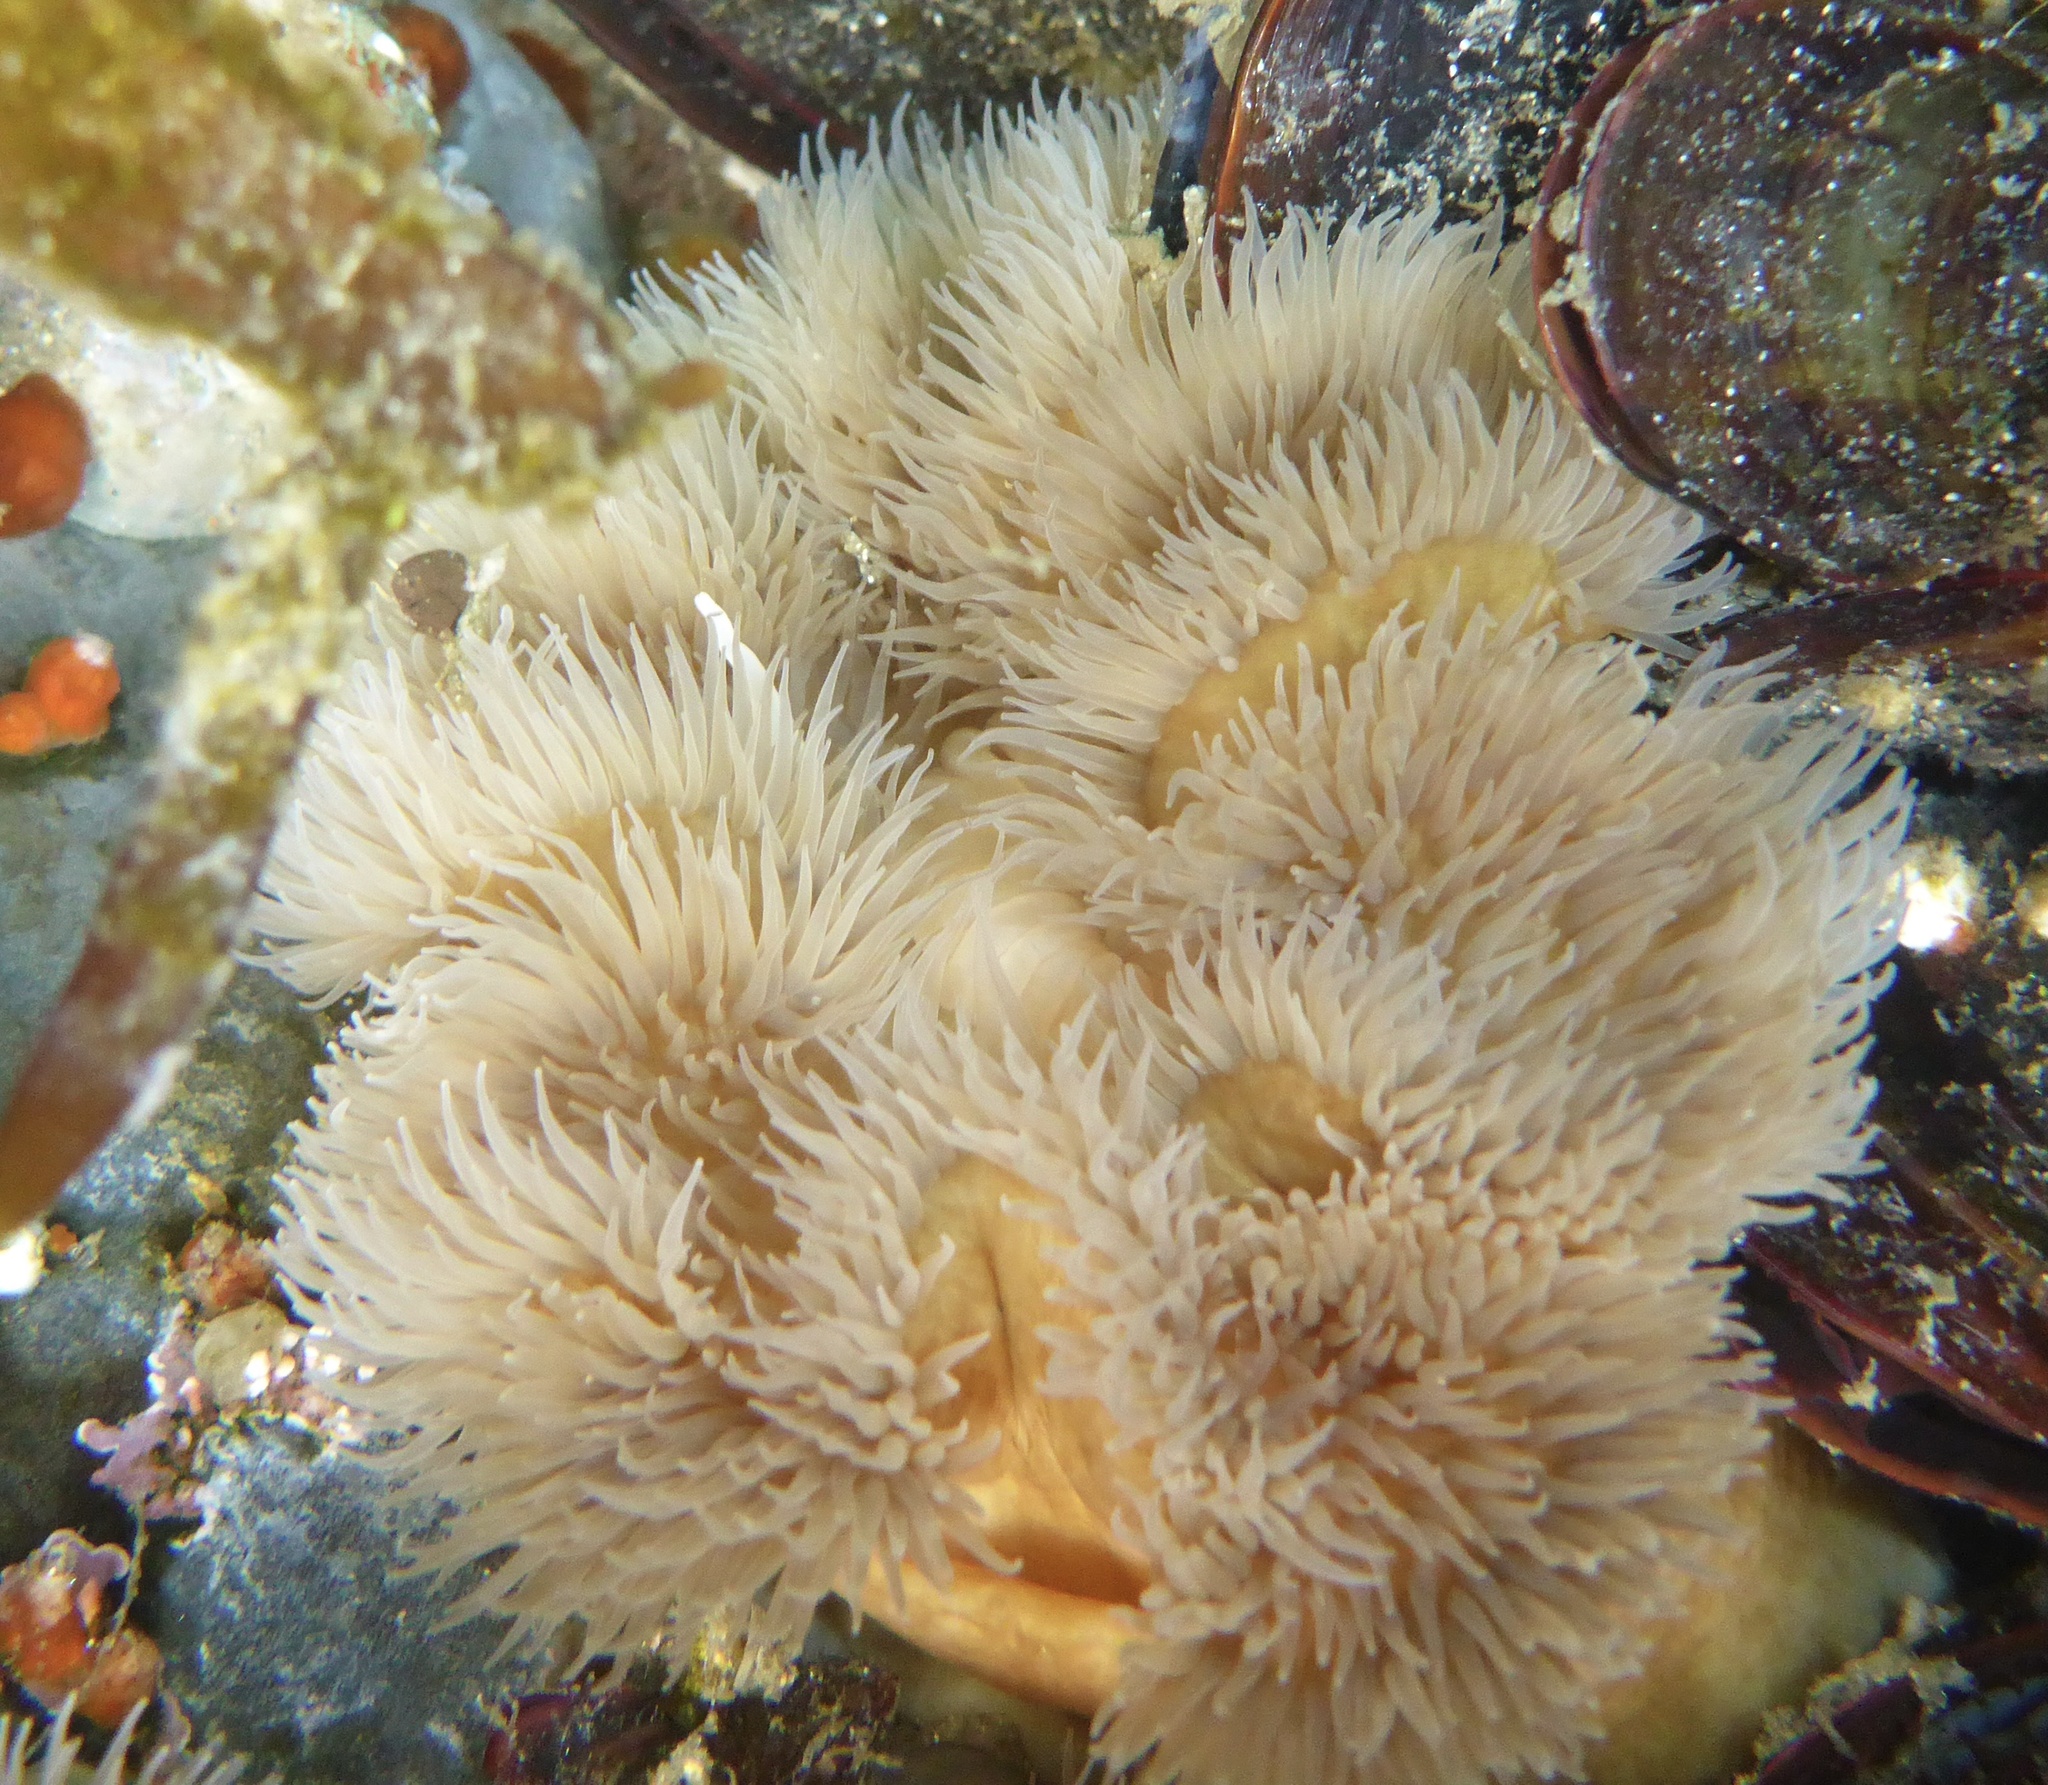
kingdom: Animalia
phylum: Cnidaria
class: Anthozoa
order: Actiniaria
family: Metridiidae
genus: Metridium
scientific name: Metridium senile
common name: Clonal plumose anemone
